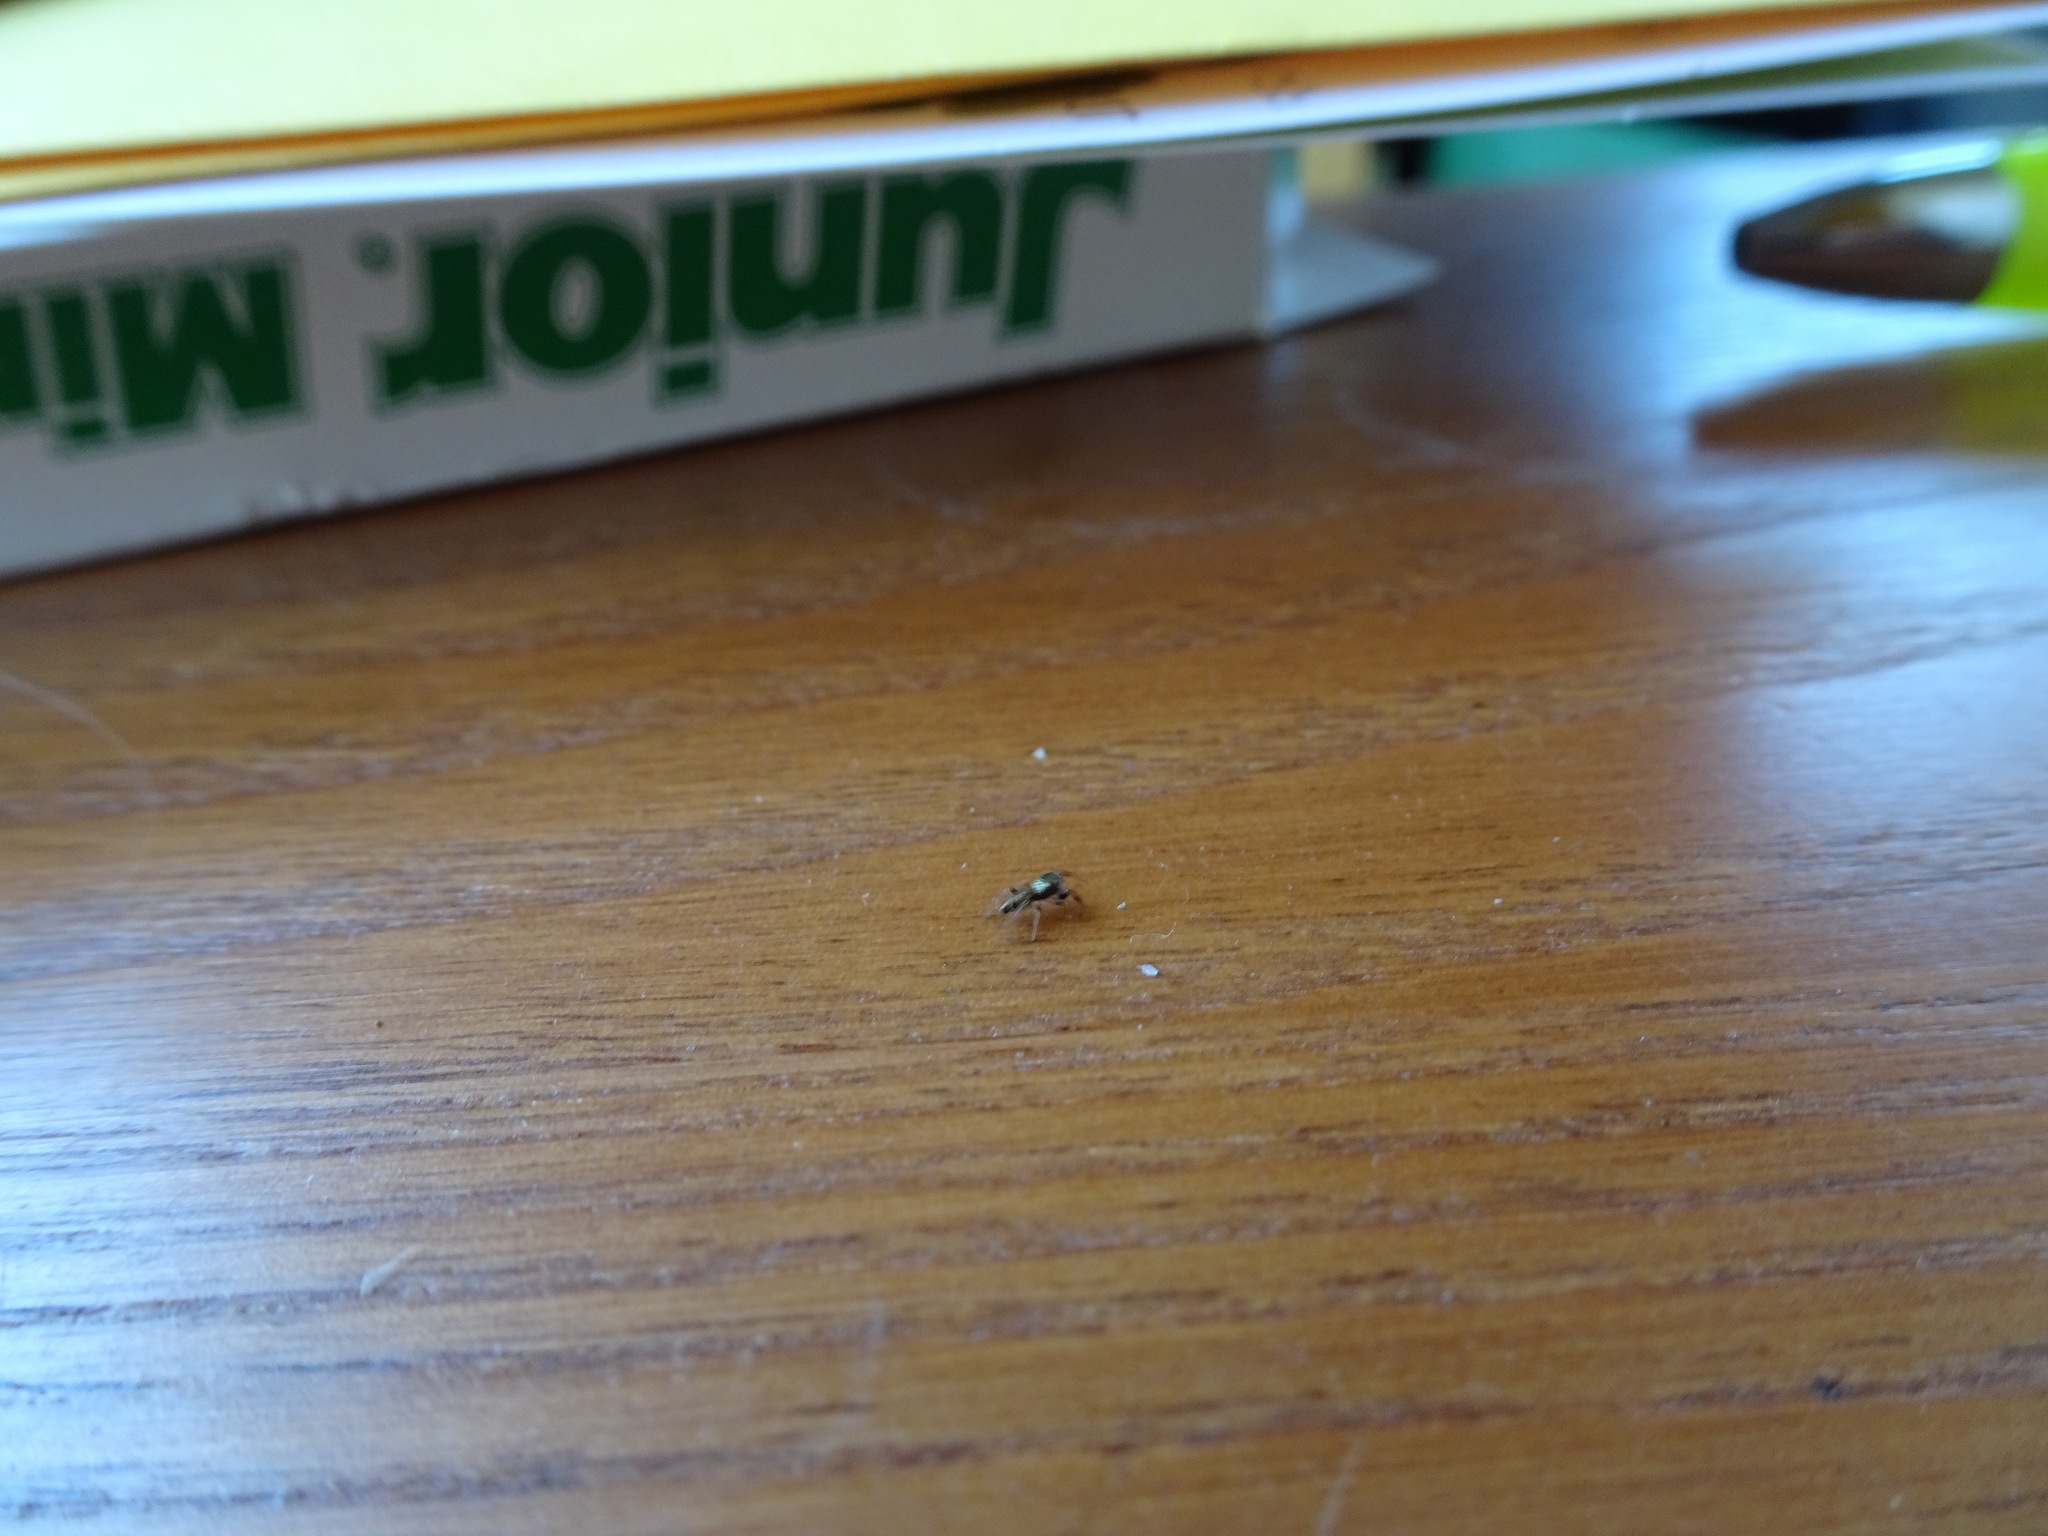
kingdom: Animalia
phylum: Arthropoda
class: Arachnida
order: Araneae
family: Salticidae
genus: Sassacus
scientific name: Sassacus vitis
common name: Jumping spiders
